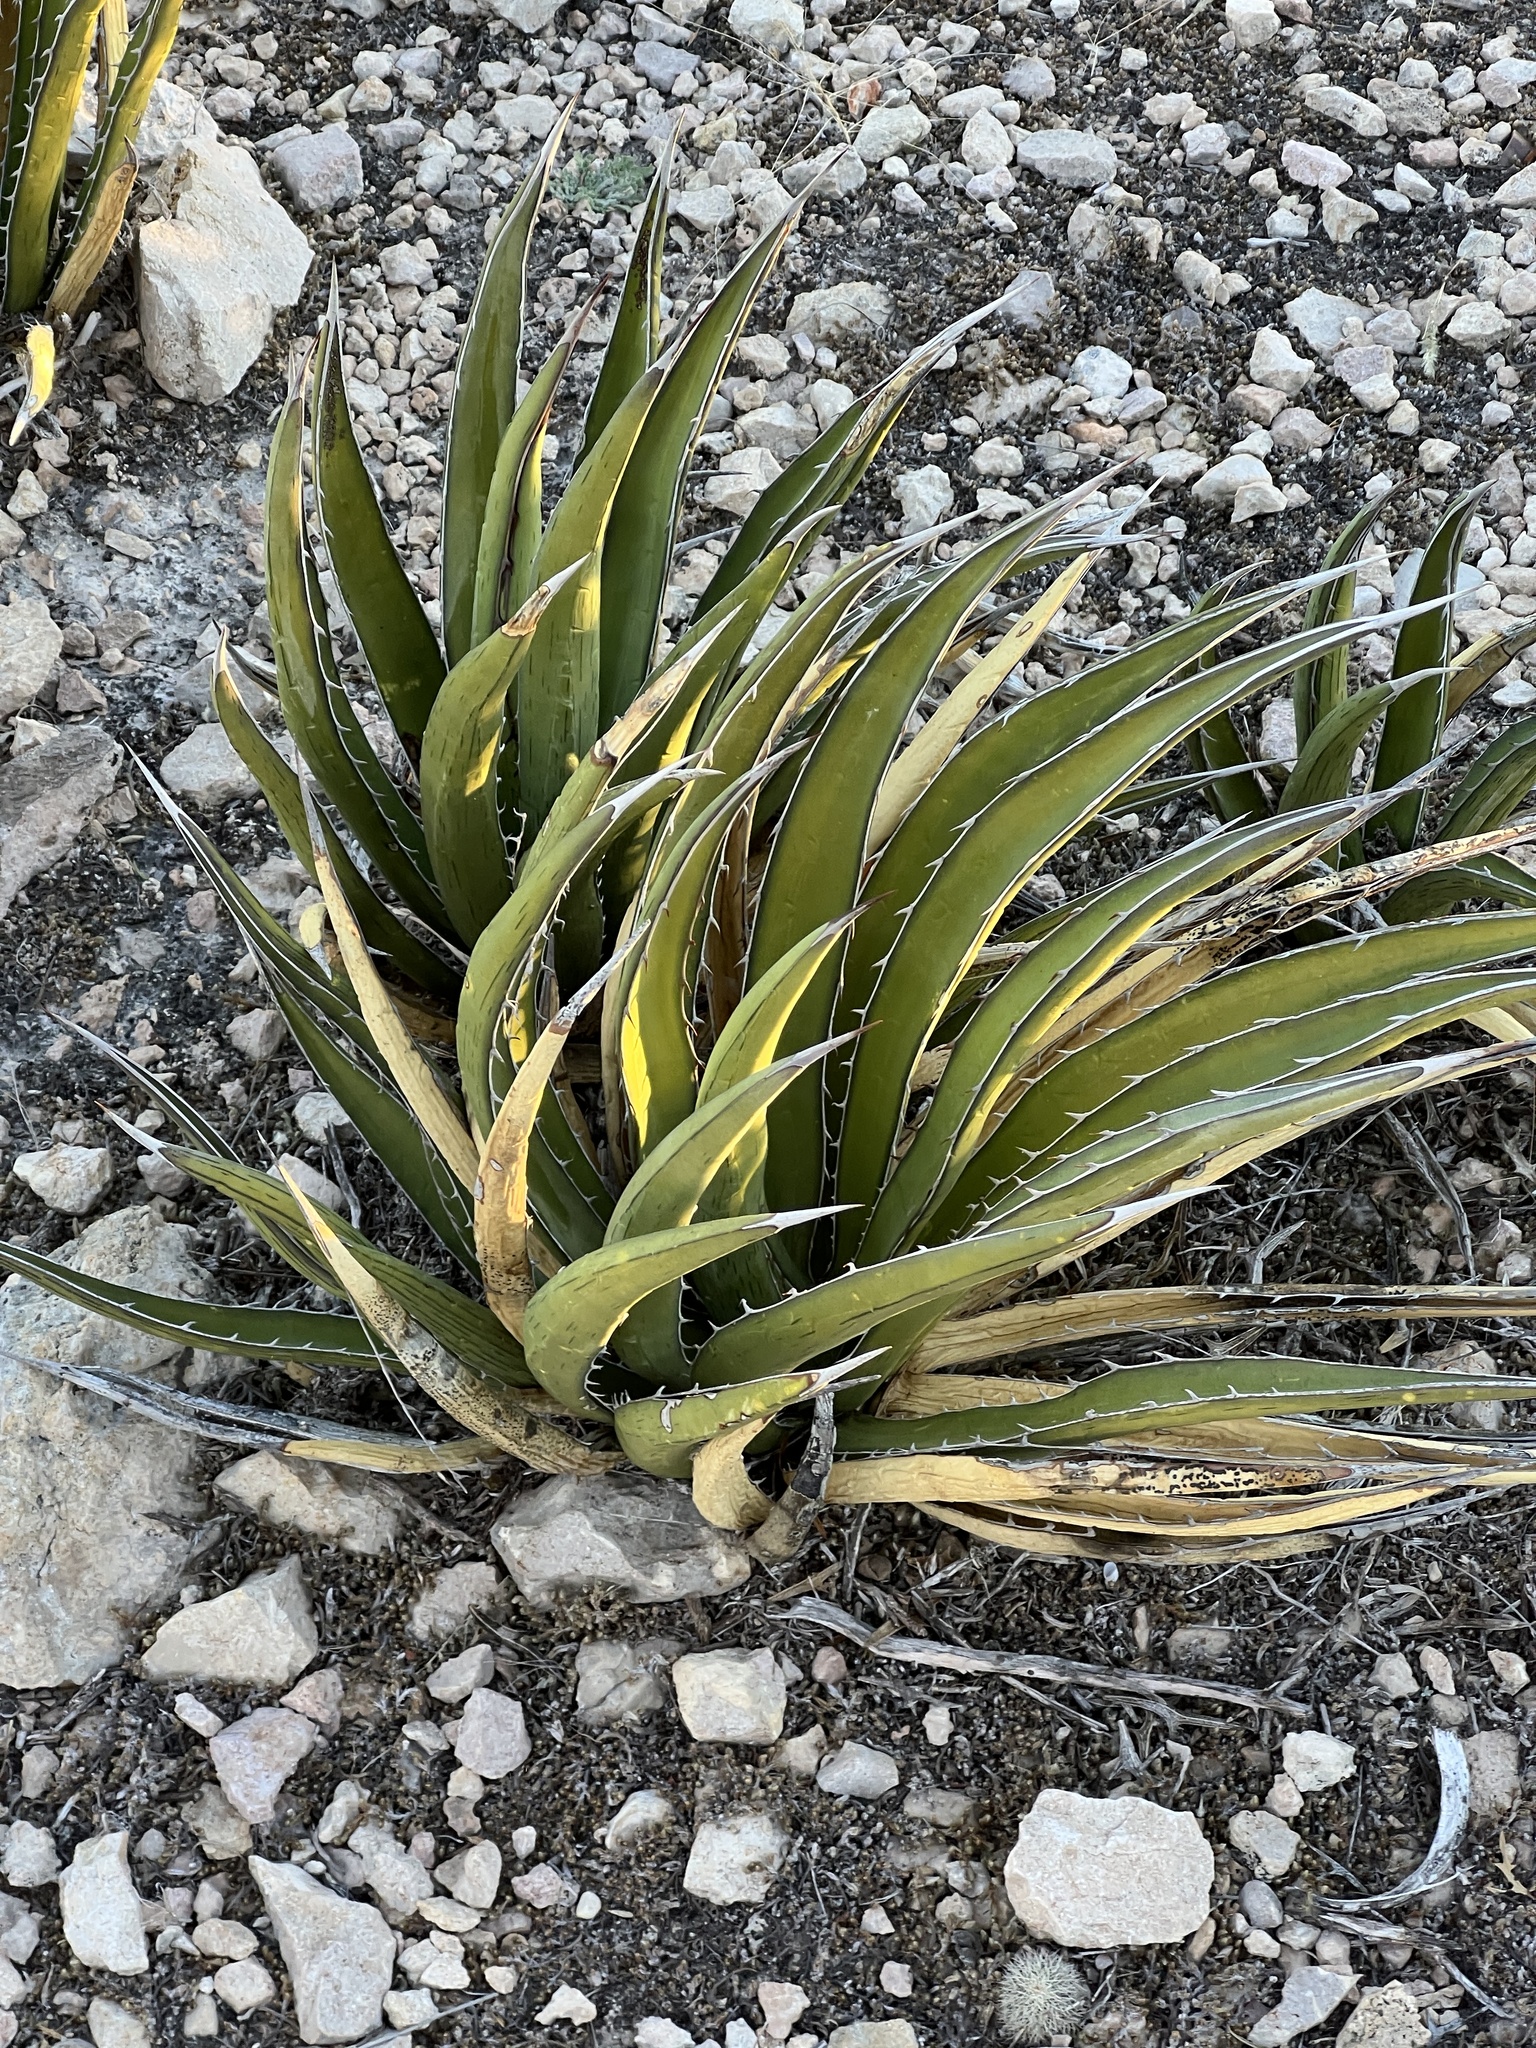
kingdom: Plantae
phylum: Tracheophyta
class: Liliopsida
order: Asparagales
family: Asparagaceae
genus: Agave
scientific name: Agave lechuguilla
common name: Lecheguilla agave
